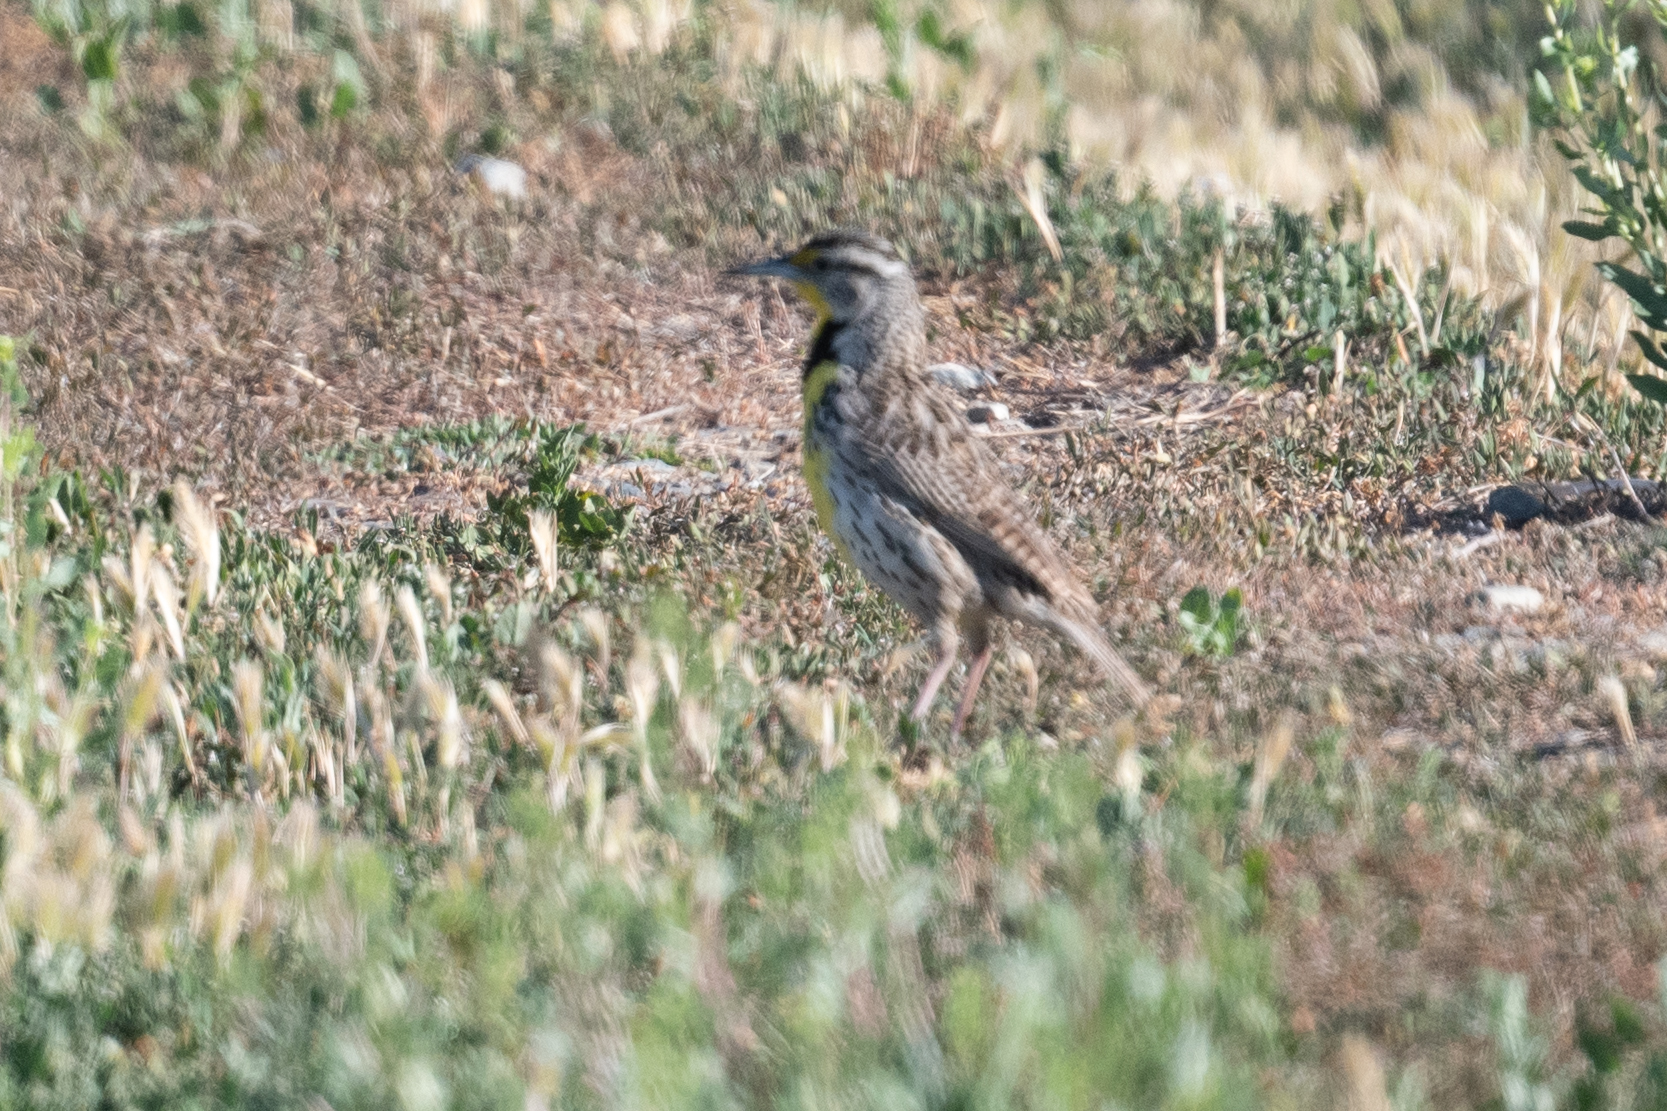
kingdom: Animalia
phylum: Chordata
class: Aves
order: Passeriformes
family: Icteridae
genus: Sturnella
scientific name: Sturnella neglecta
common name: Western meadowlark
